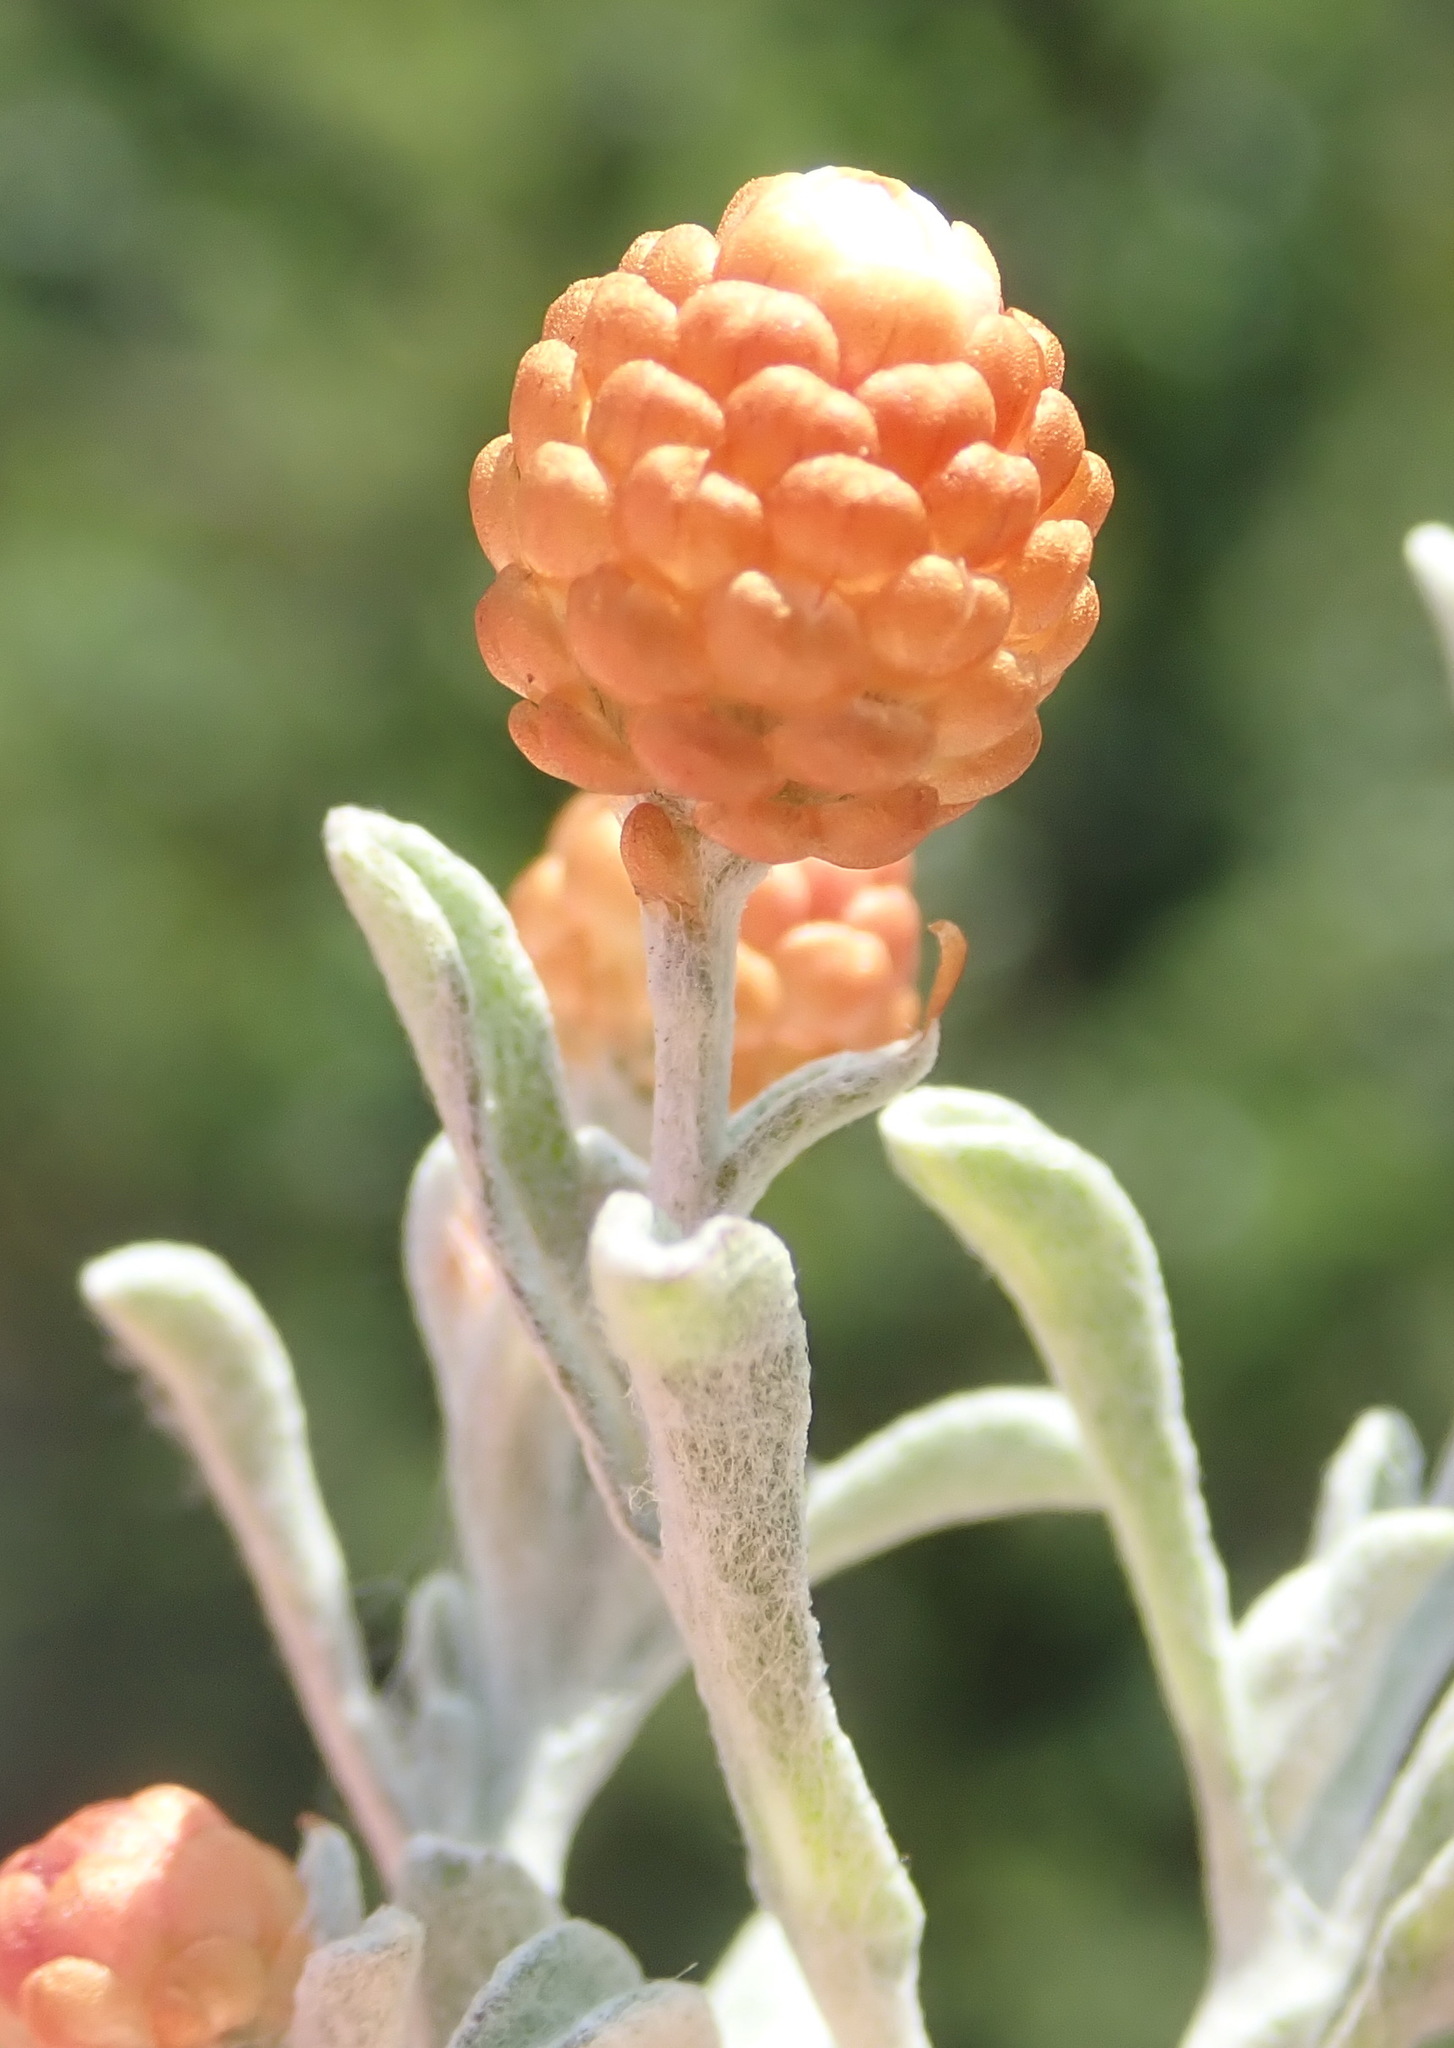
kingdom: Plantae
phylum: Tracheophyta
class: Magnoliopsida
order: Asterales
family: Asteraceae
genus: Helichrysum
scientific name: Helichrysum cochleariforme
